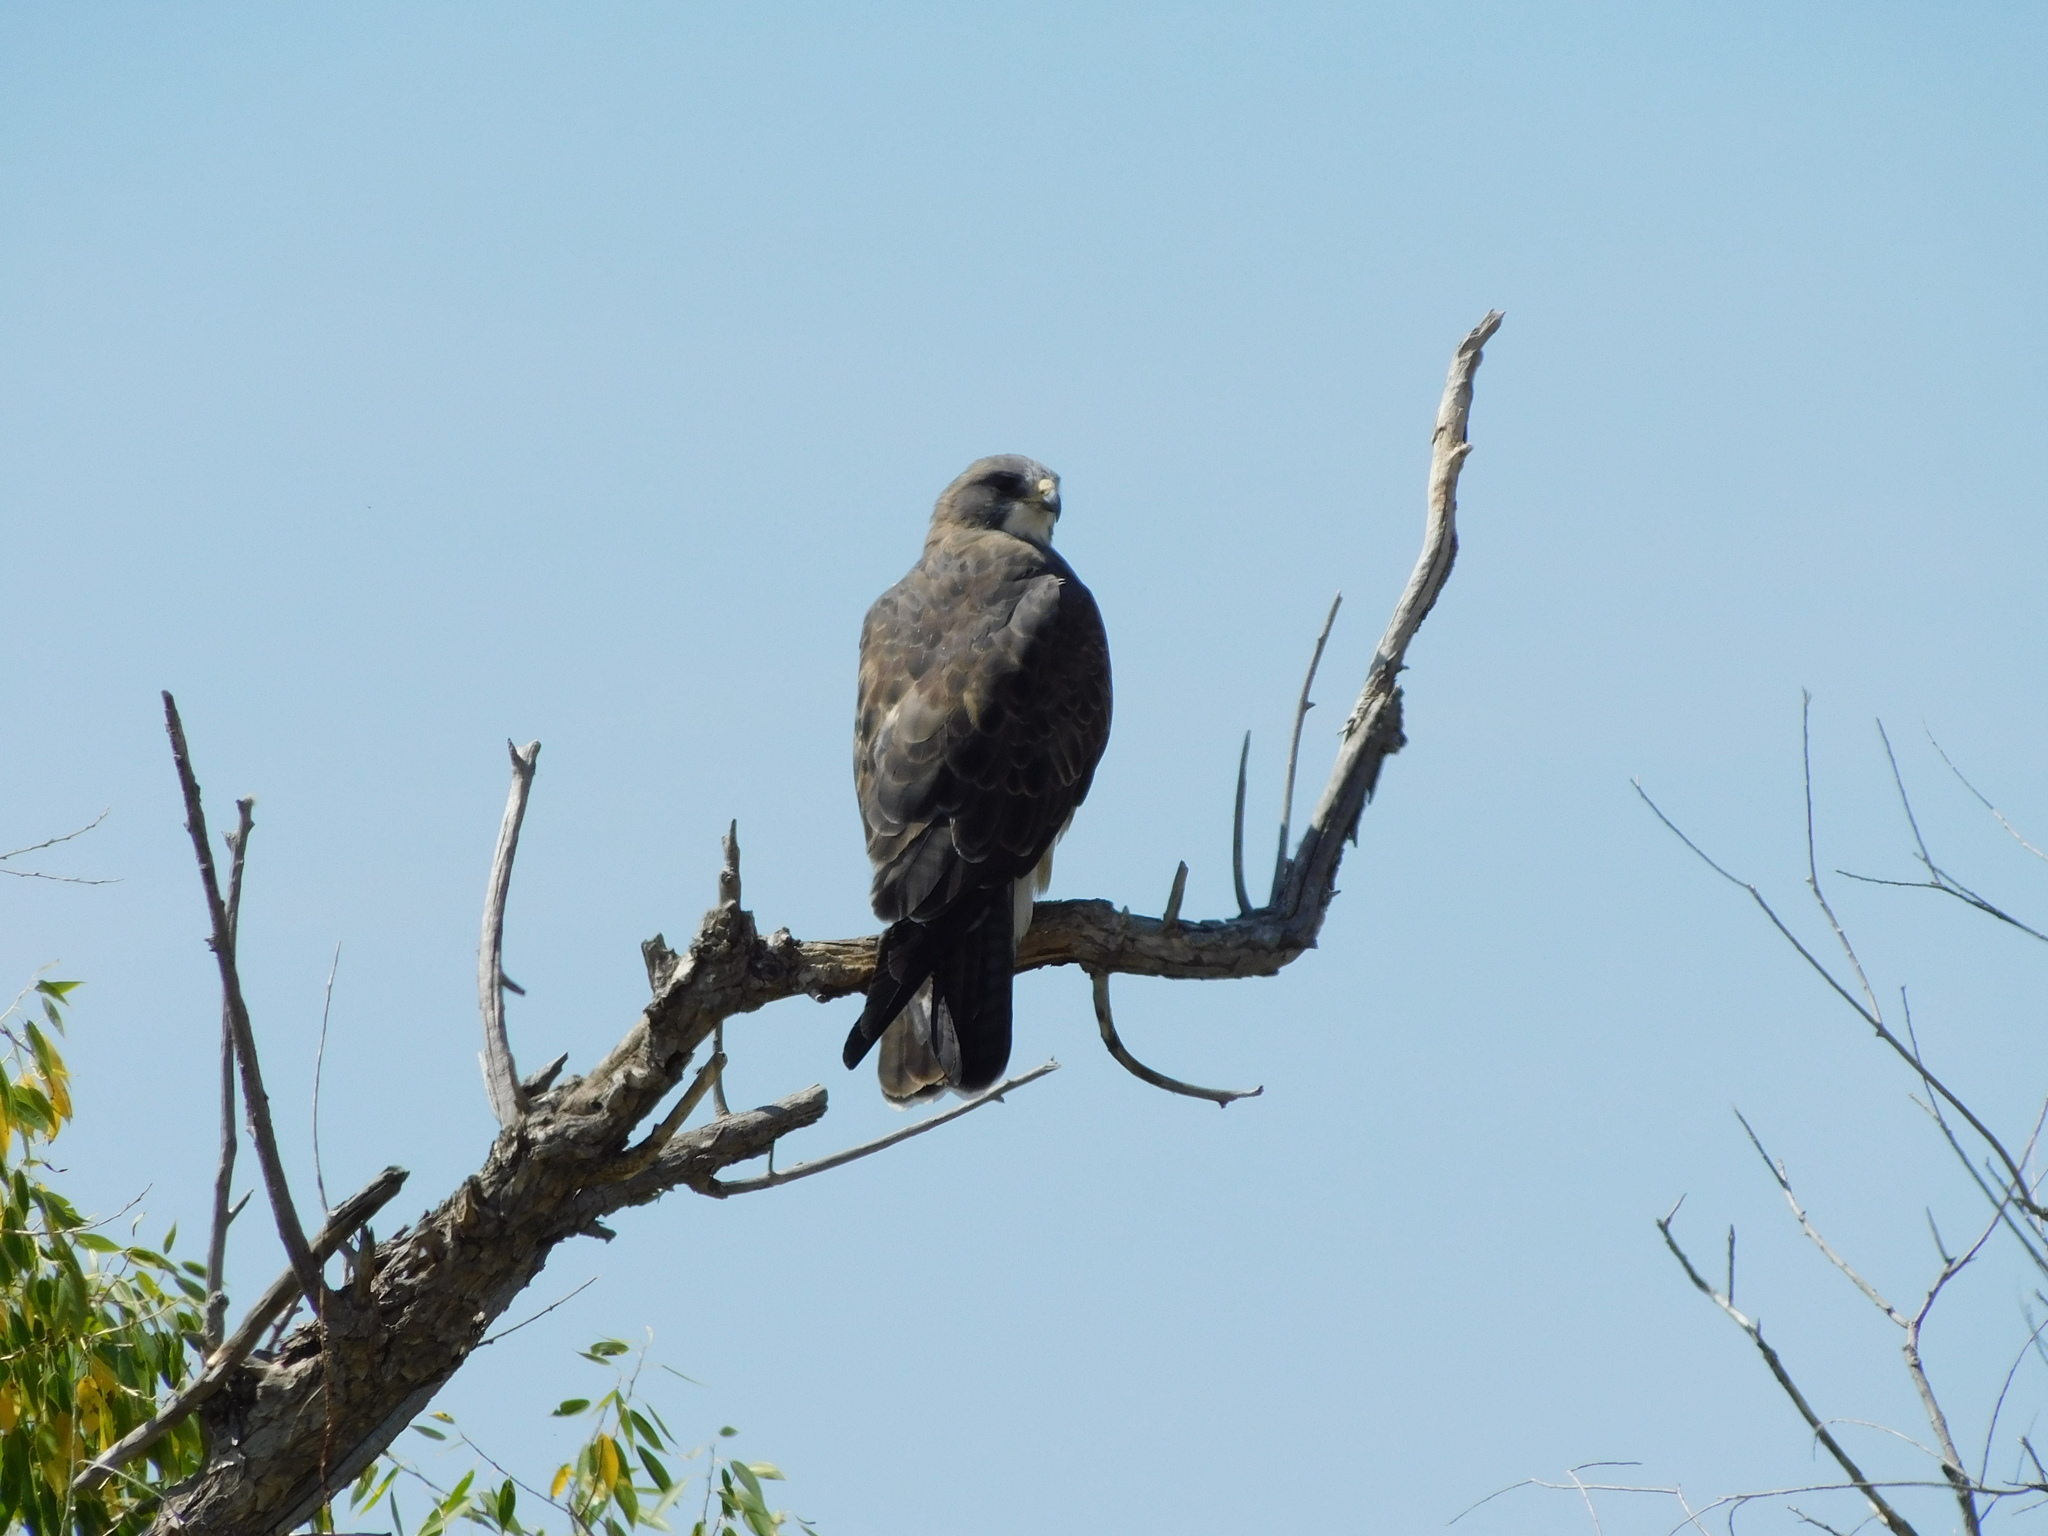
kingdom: Animalia
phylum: Chordata
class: Aves
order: Accipitriformes
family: Accipitridae
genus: Buteo
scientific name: Buteo swainsoni
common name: Swainson's hawk
